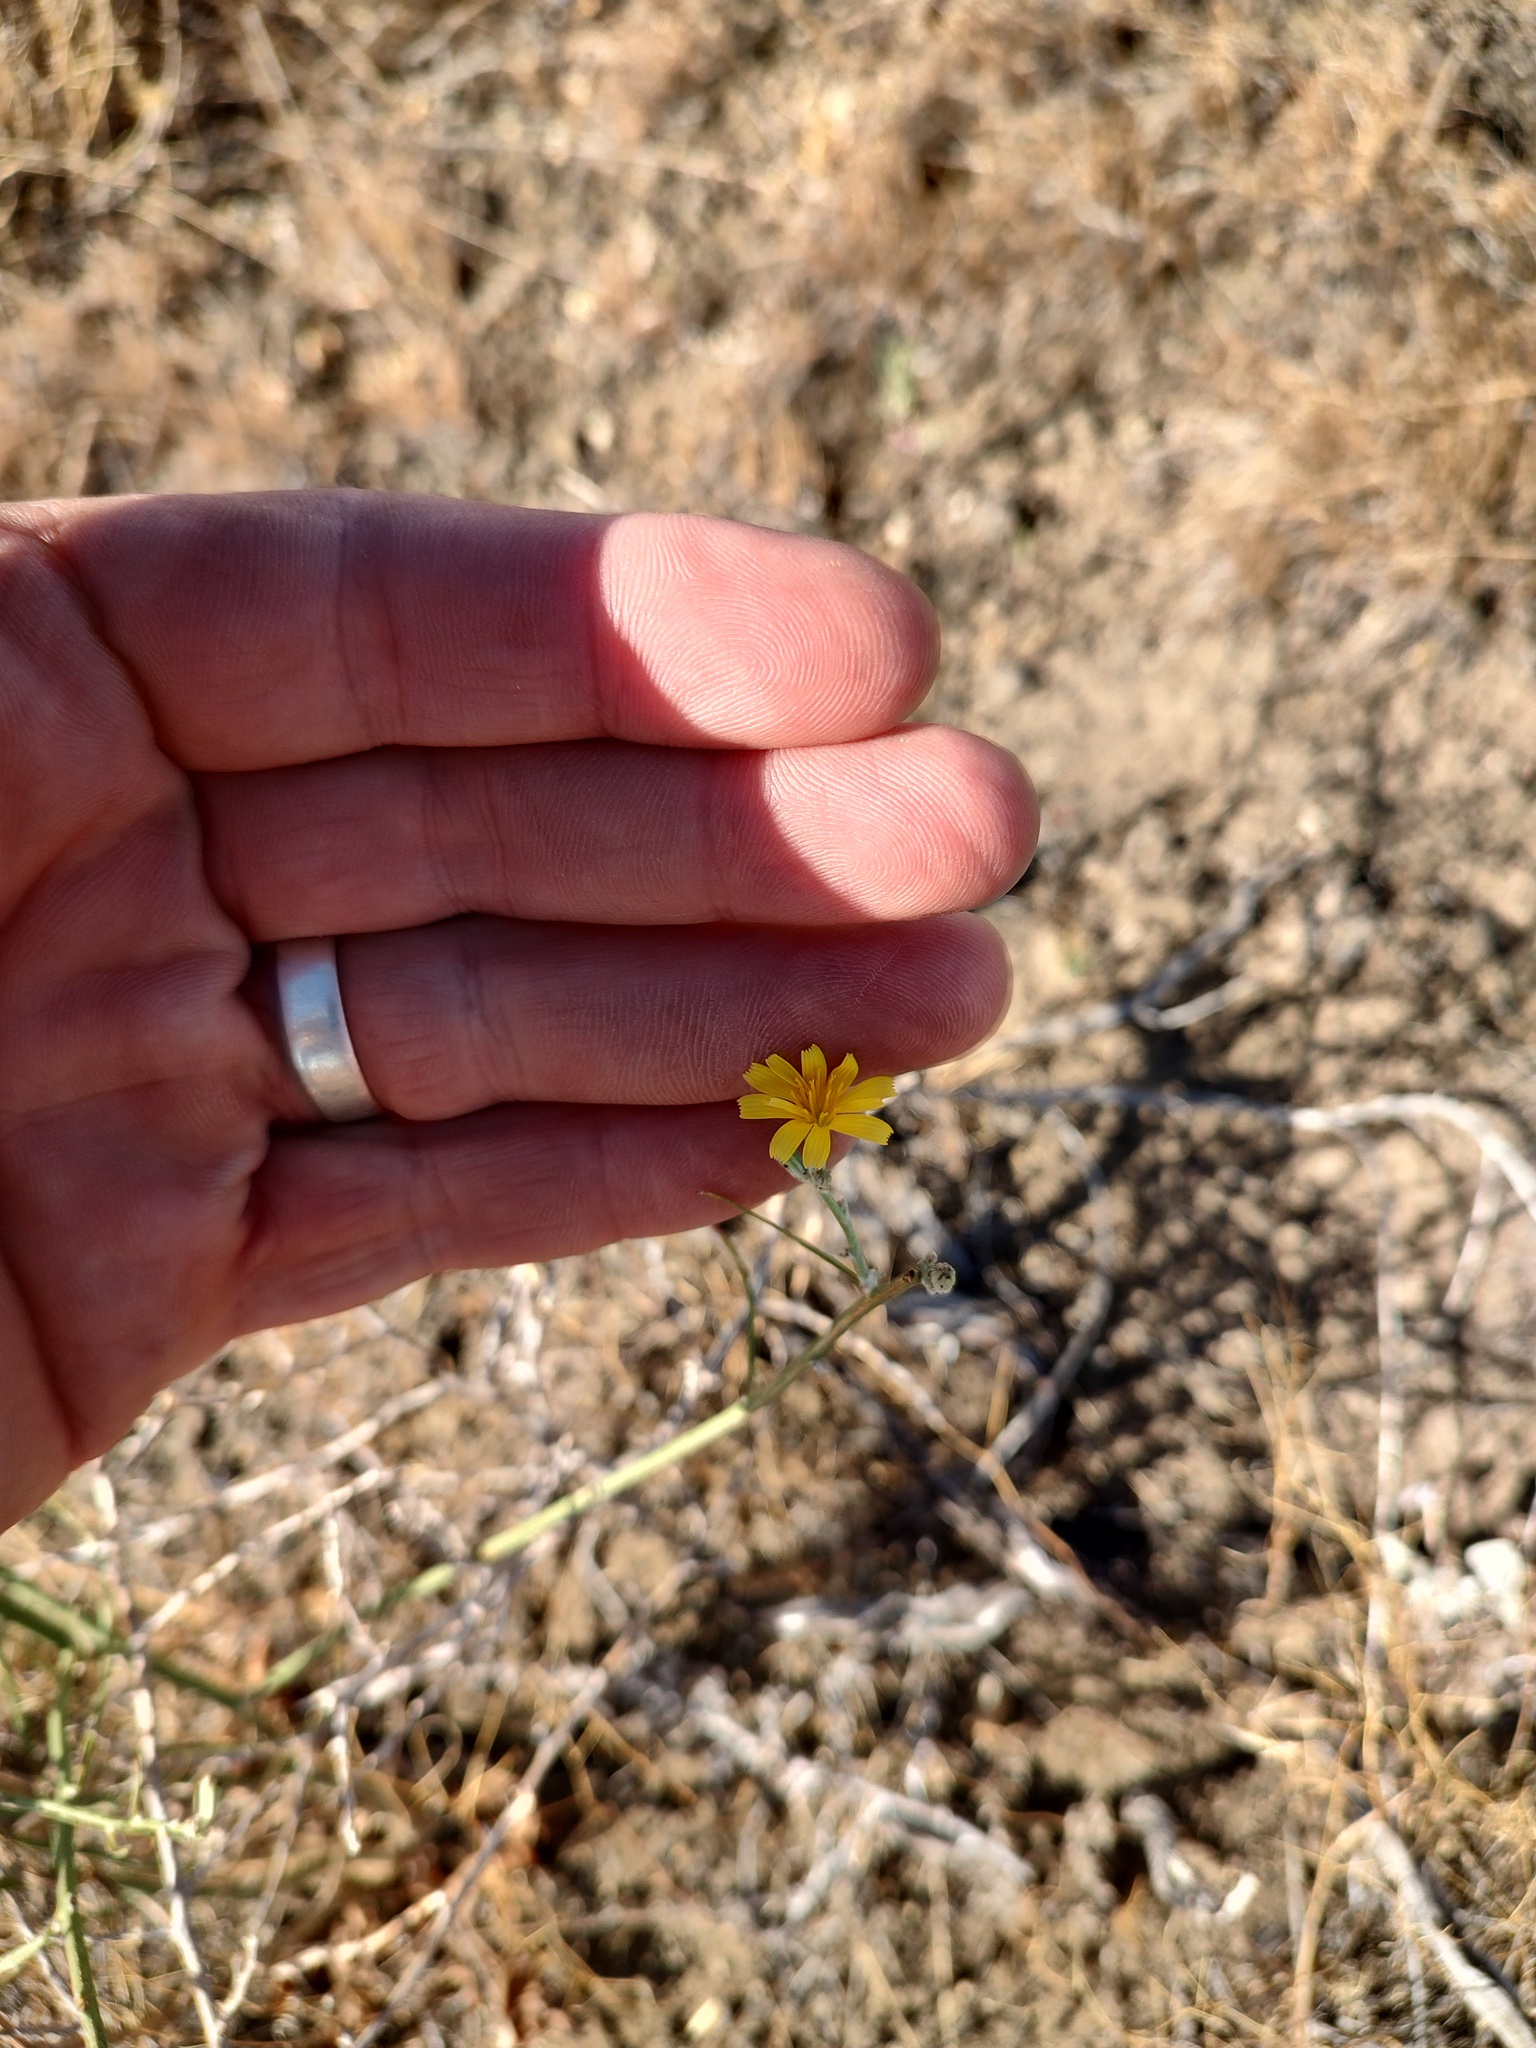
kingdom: Plantae
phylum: Tracheophyta
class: Magnoliopsida
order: Asterales
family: Asteraceae
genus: Chondrilla
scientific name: Chondrilla juncea
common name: Skeleton weed
